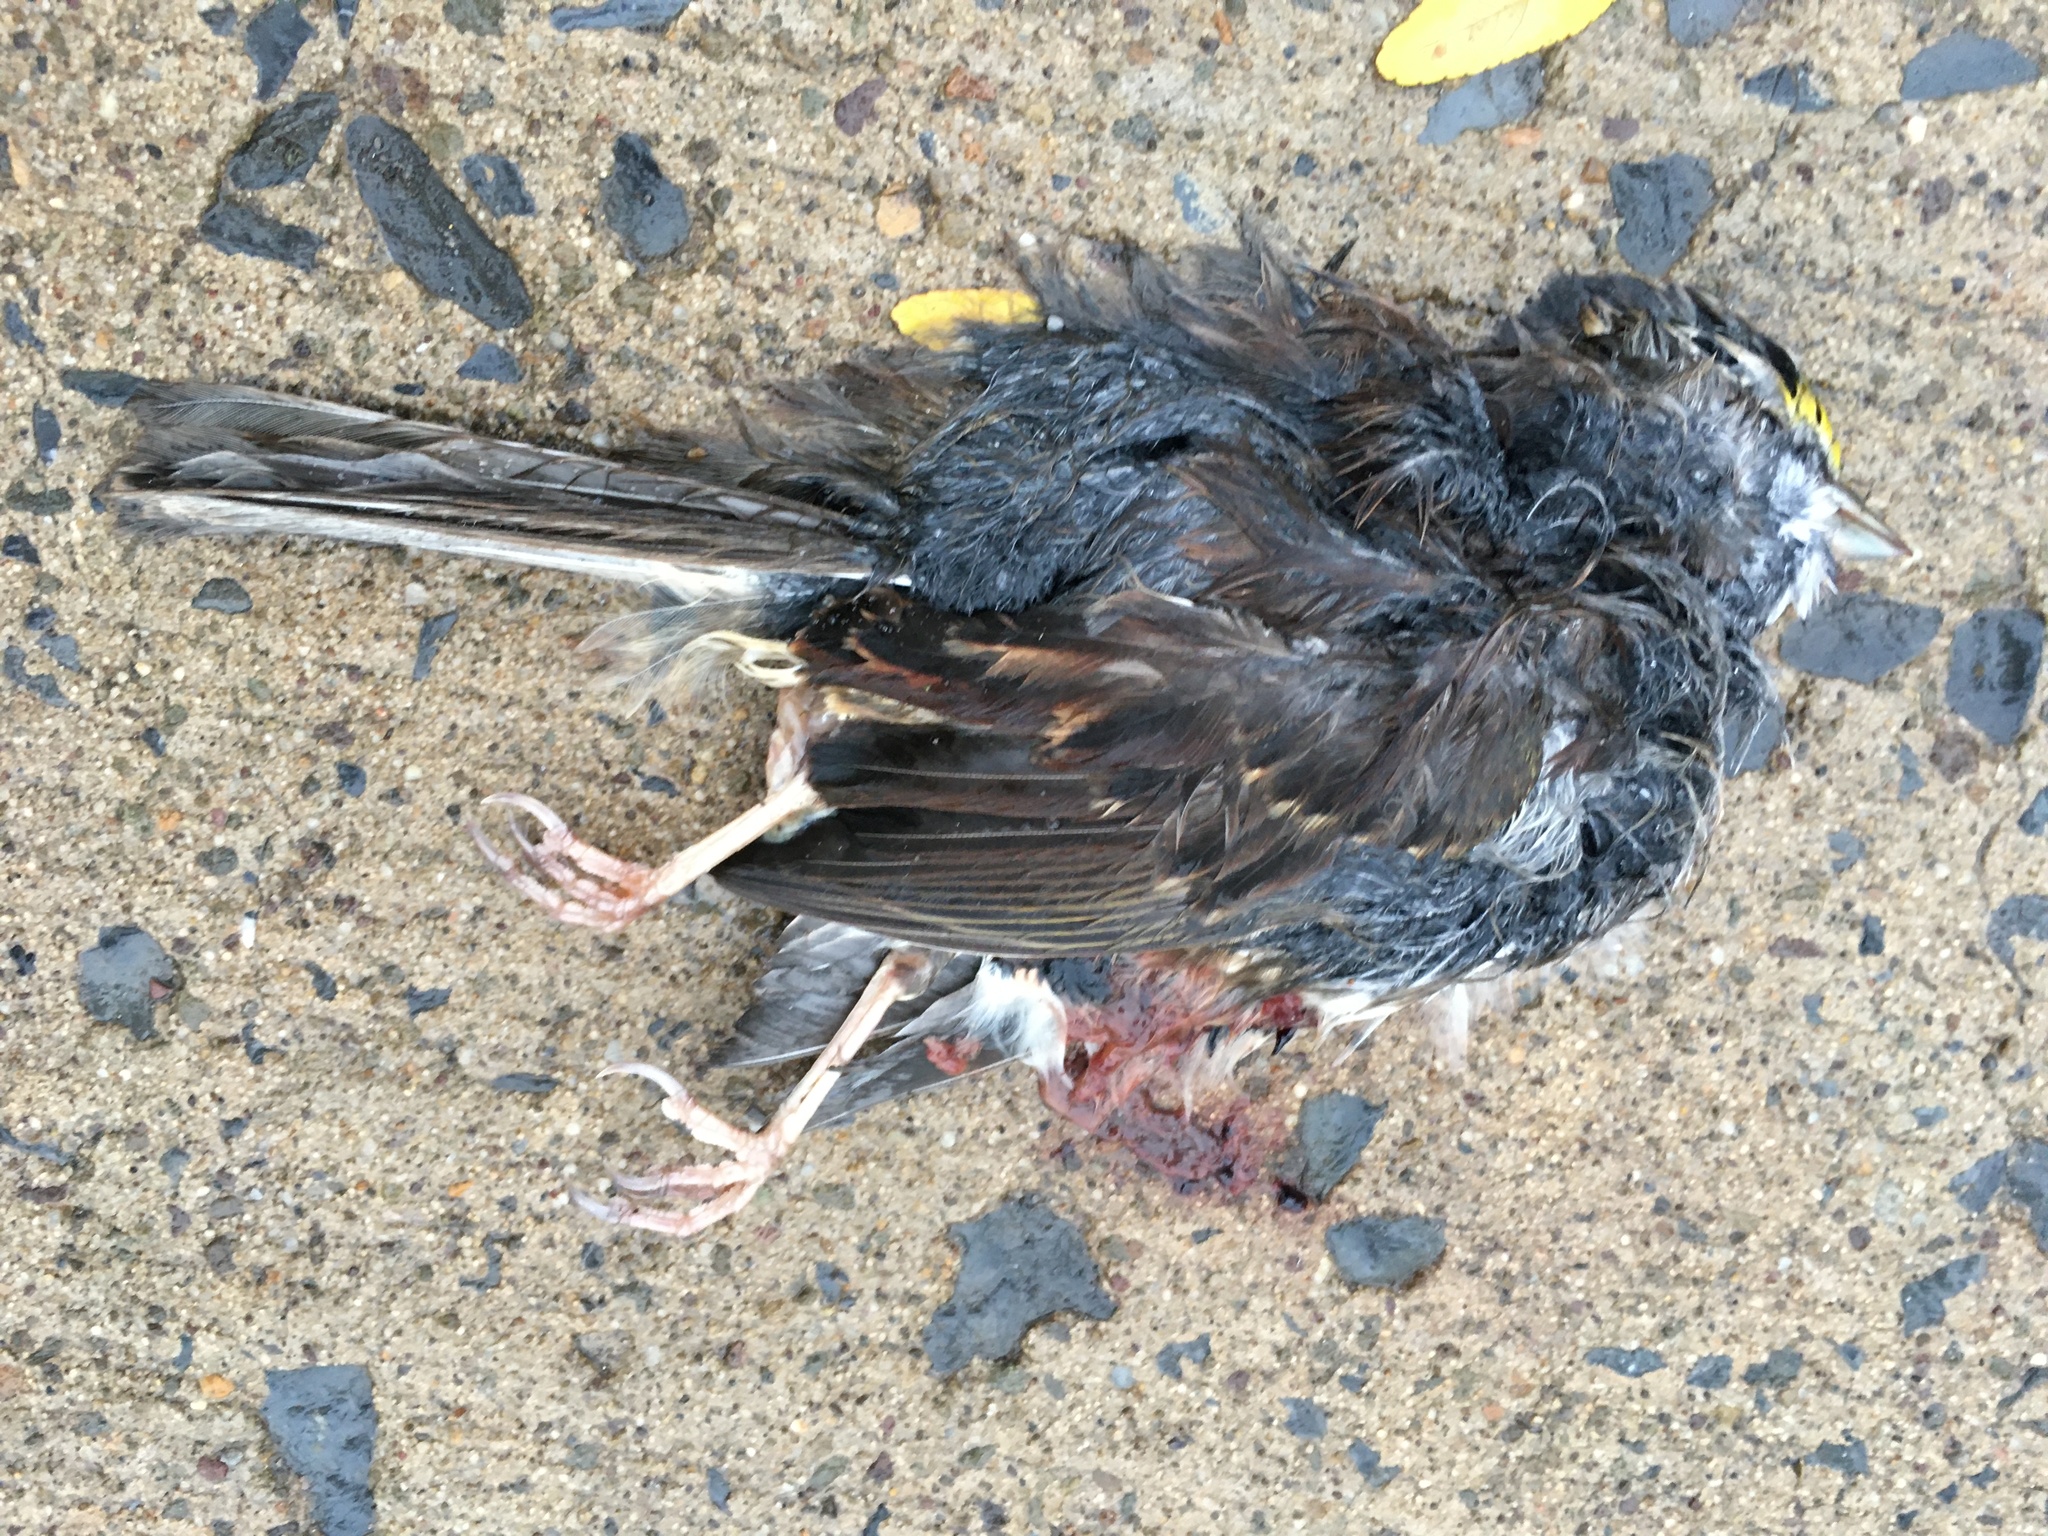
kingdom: Animalia
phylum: Chordata
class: Aves
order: Passeriformes
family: Passerellidae
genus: Zonotrichia
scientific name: Zonotrichia albicollis
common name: White-throated sparrow
